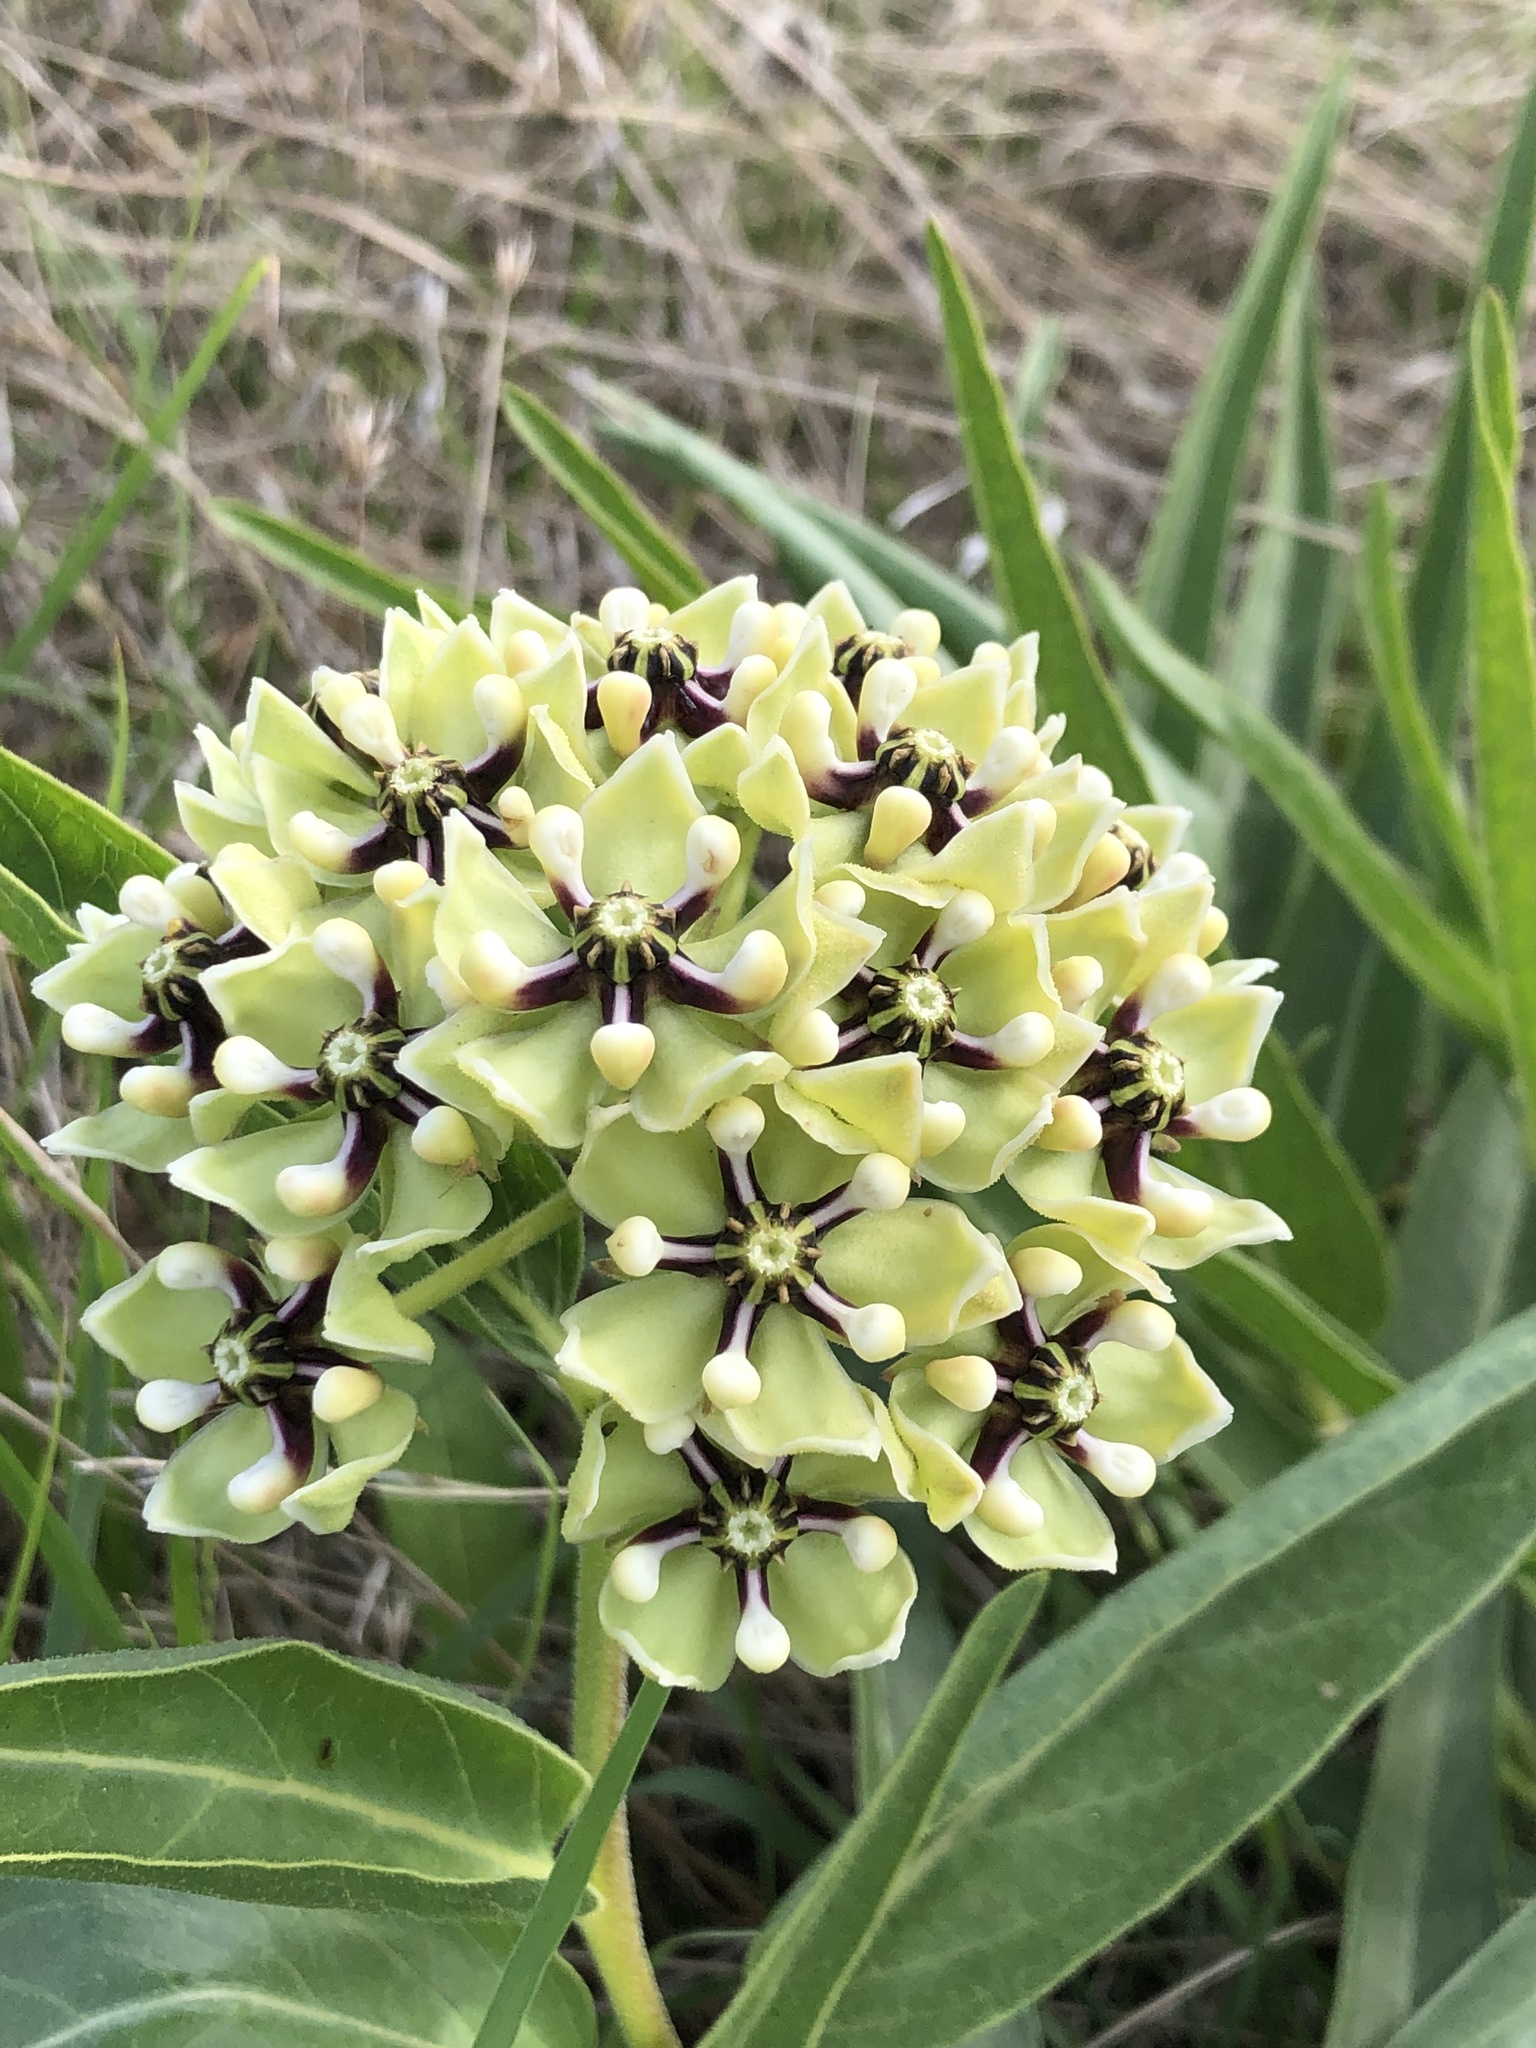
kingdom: Plantae
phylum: Tracheophyta
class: Magnoliopsida
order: Gentianales
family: Apocynaceae
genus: Asclepias
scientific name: Asclepias asperula
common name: Antelope horns
